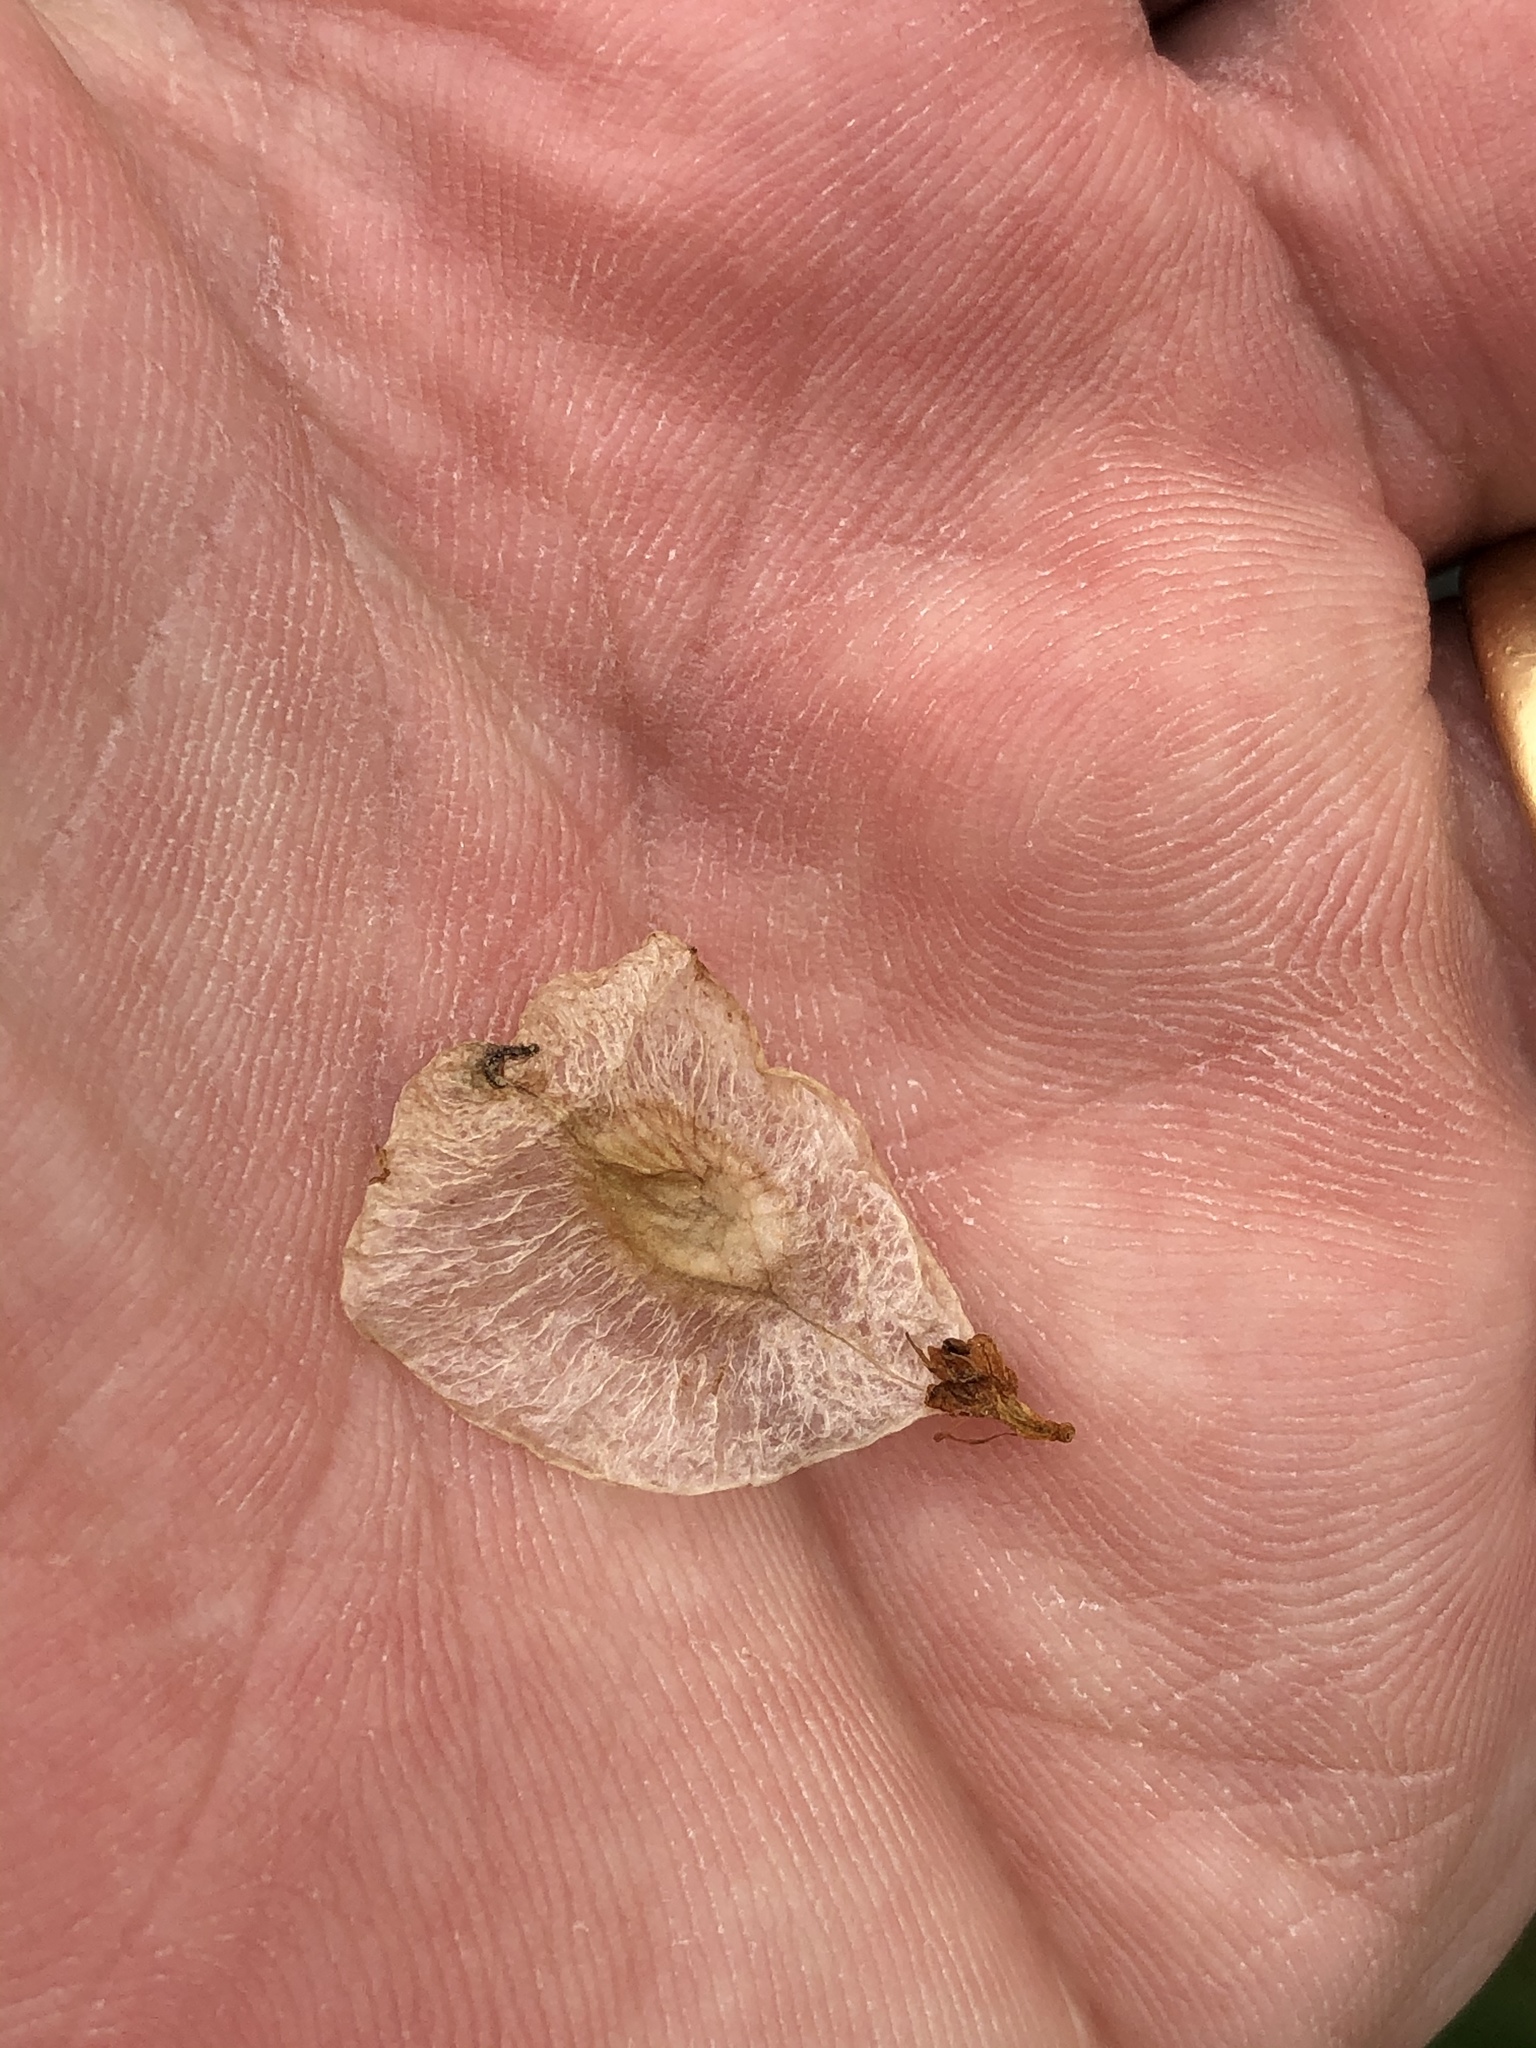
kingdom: Plantae
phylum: Tracheophyta
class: Magnoliopsida
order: Sapindales
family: Sapindaceae
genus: Dodonaea
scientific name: Dodonaea viscosa
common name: Hopbush
